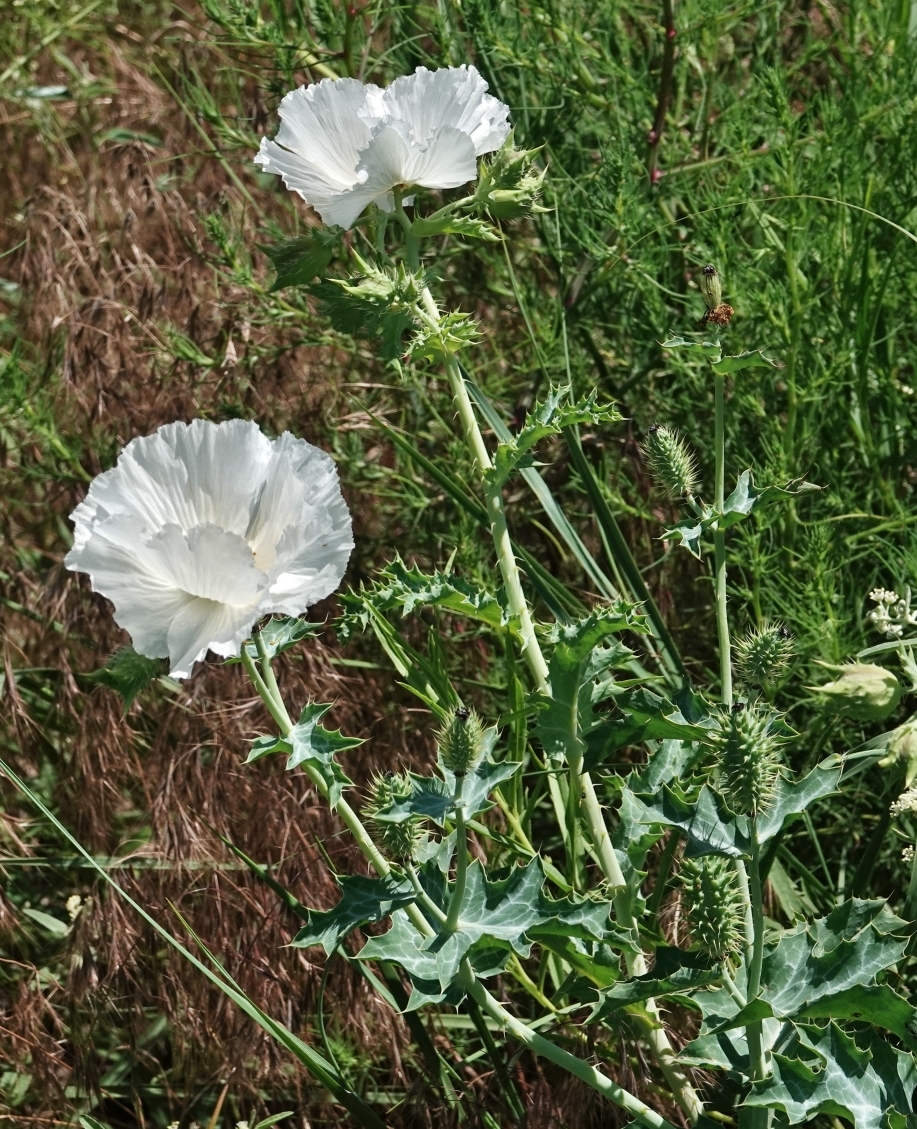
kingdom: Plantae
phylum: Tracheophyta
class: Magnoliopsida
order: Ranunculales
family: Papaveraceae
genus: Argemone
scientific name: Argemone polyanthemos
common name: Plains prickly-poppy
